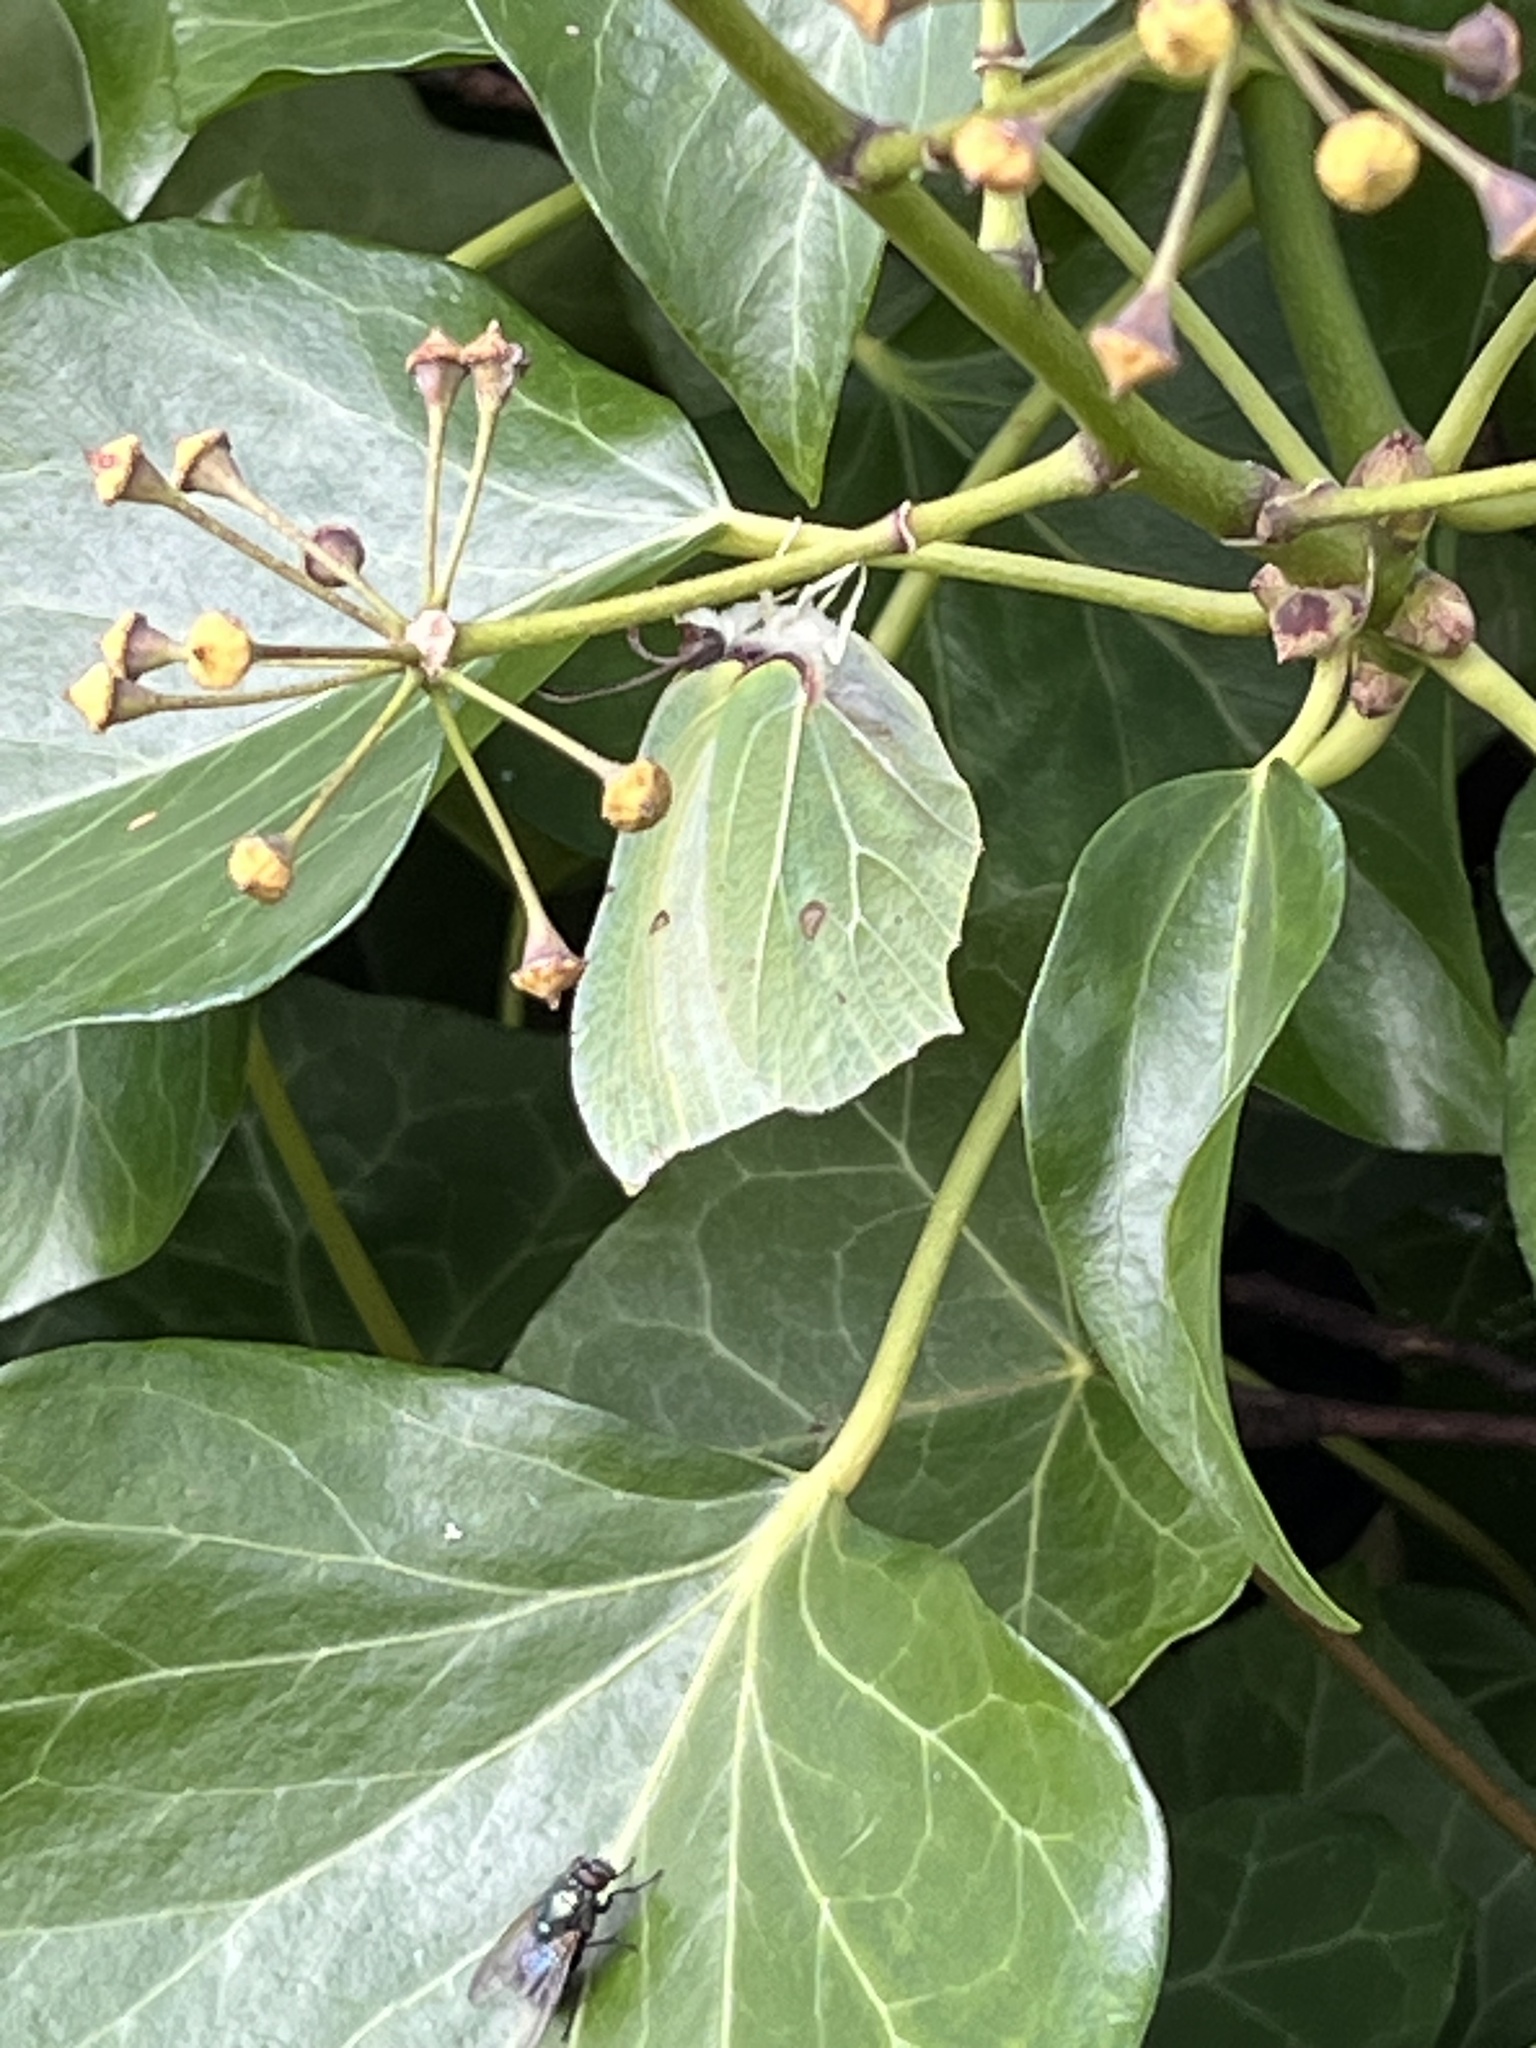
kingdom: Animalia
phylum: Arthropoda
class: Insecta
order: Lepidoptera
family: Pieridae
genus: Gonepteryx
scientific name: Gonepteryx rhamni
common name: Brimstone
